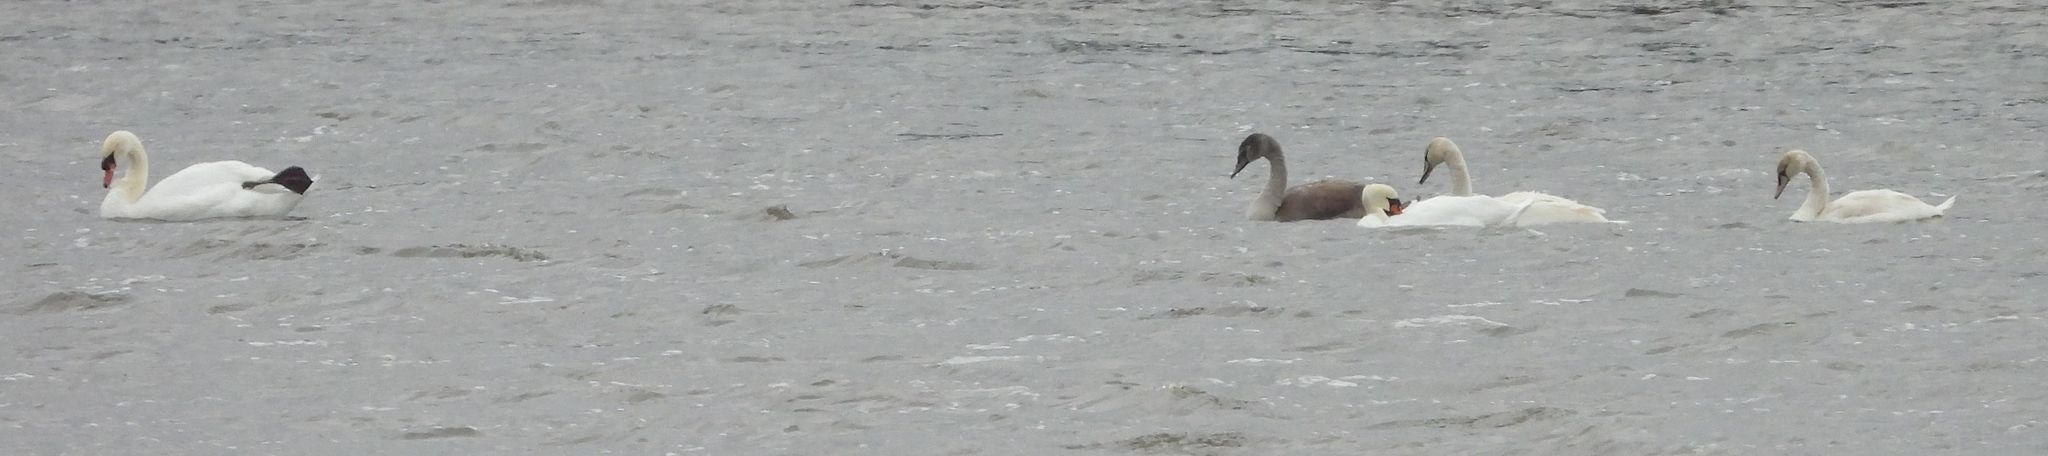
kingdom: Animalia
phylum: Chordata
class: Aves
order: Anseriformes
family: Anatidae
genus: Cygnus
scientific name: Cygnus olor
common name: Mute swan
